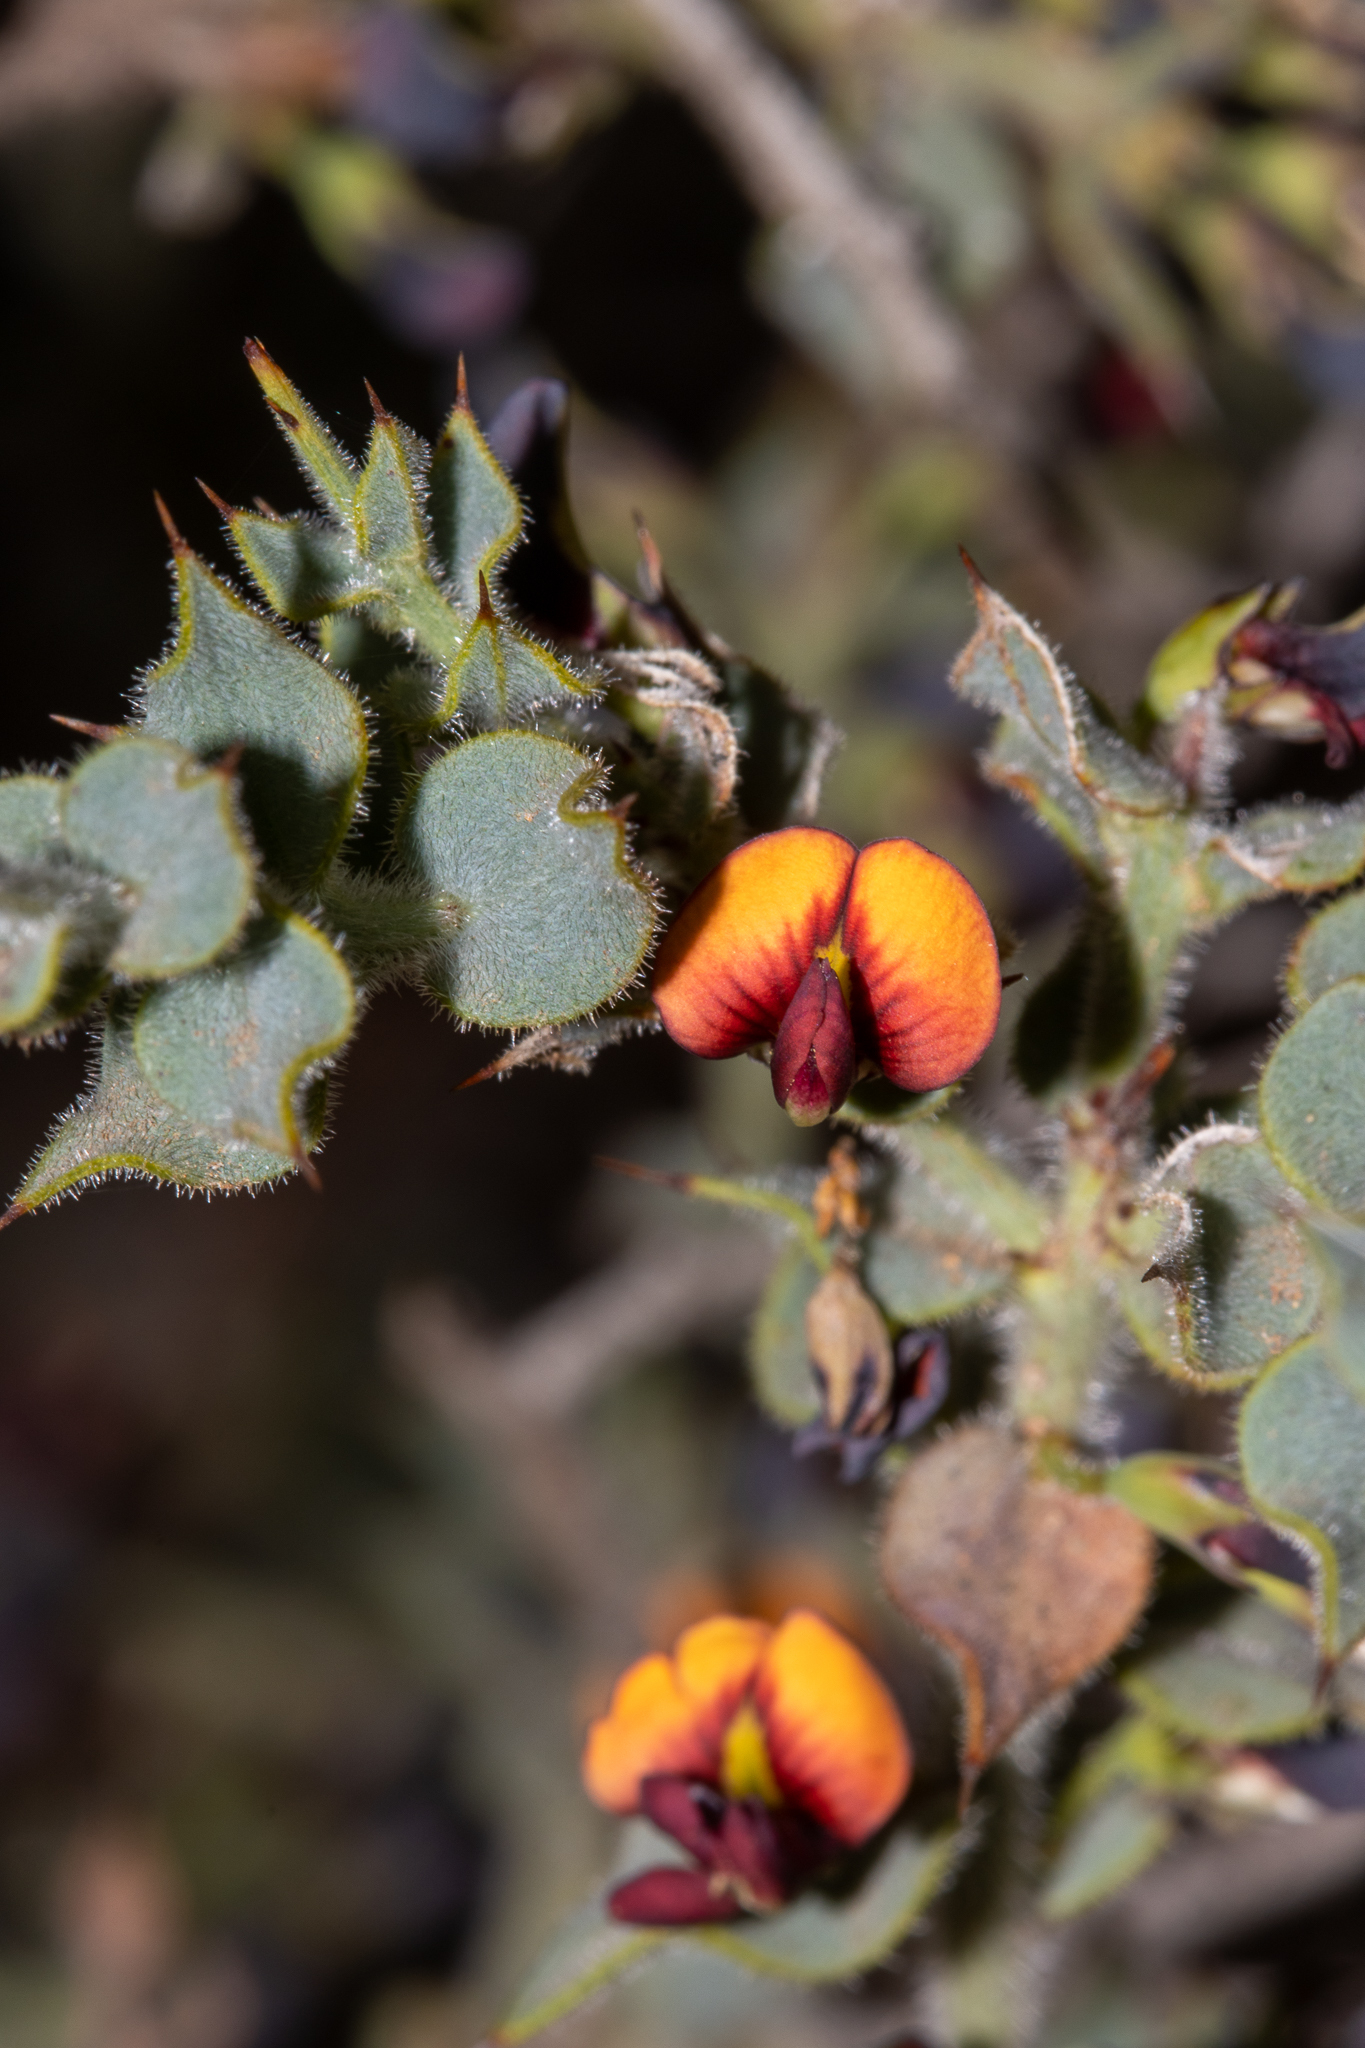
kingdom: Plantae
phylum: Tracheophyta
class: Magnoliopsida
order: Fabales
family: Fabaceae
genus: Daviesia
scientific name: Daviesia arenaria
